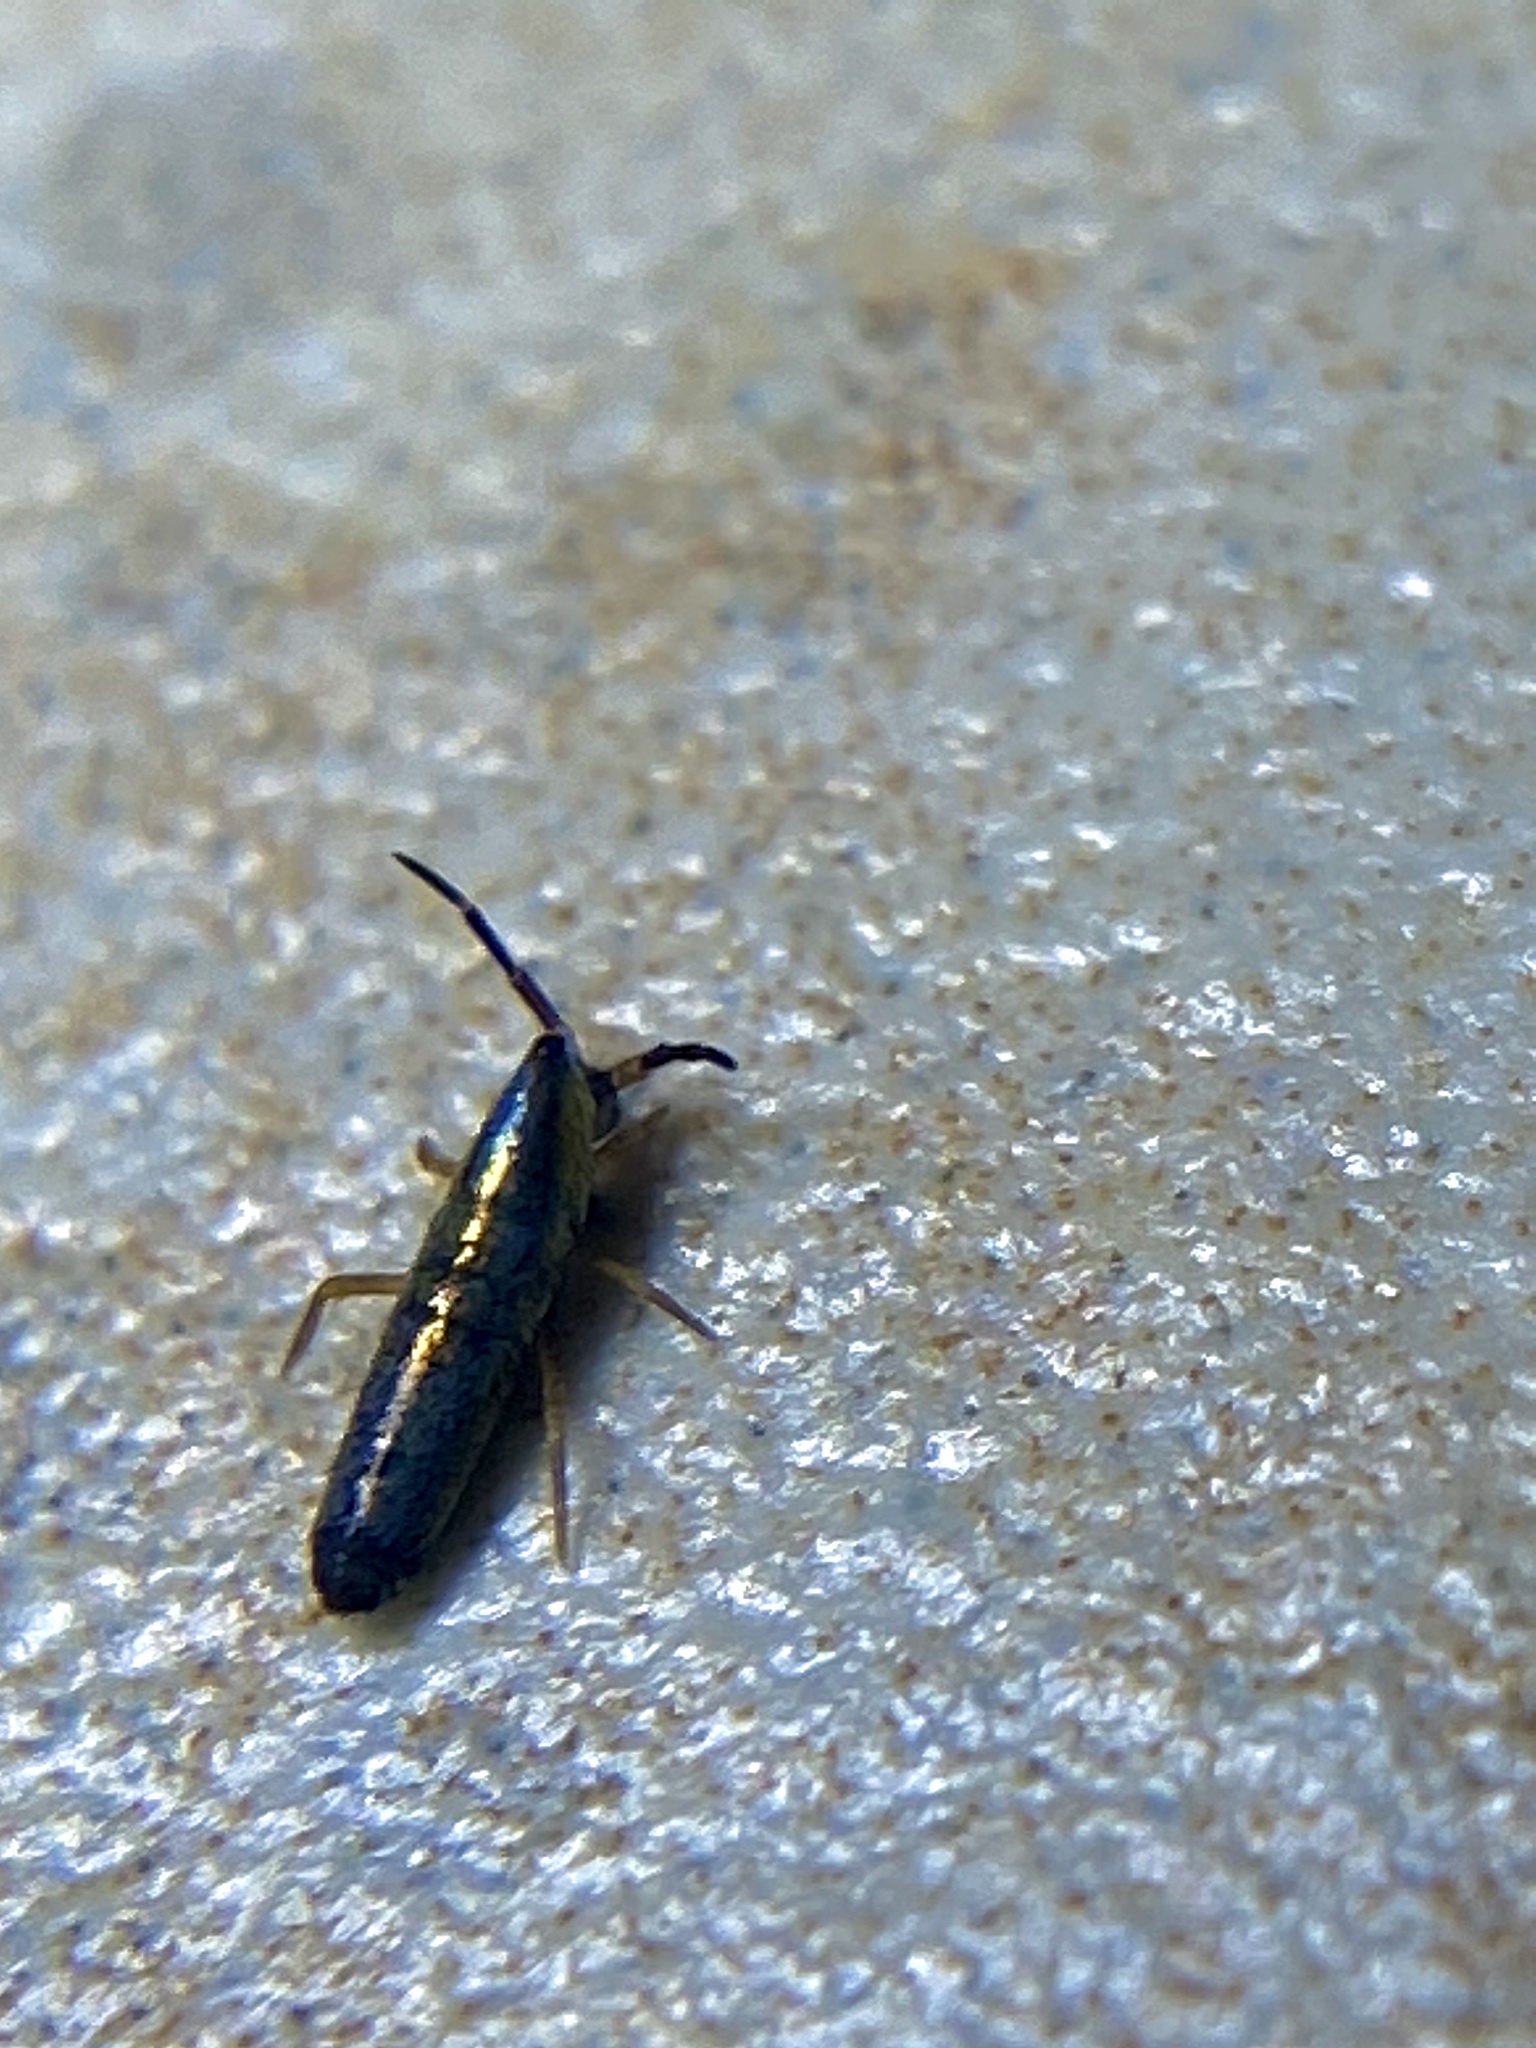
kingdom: Animalia
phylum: Arthropoda
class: Collembola
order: Entomobryomorpha
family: Entomobryidae
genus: Lepidocyrtus
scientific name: Lepidocyrtus paradoxus
